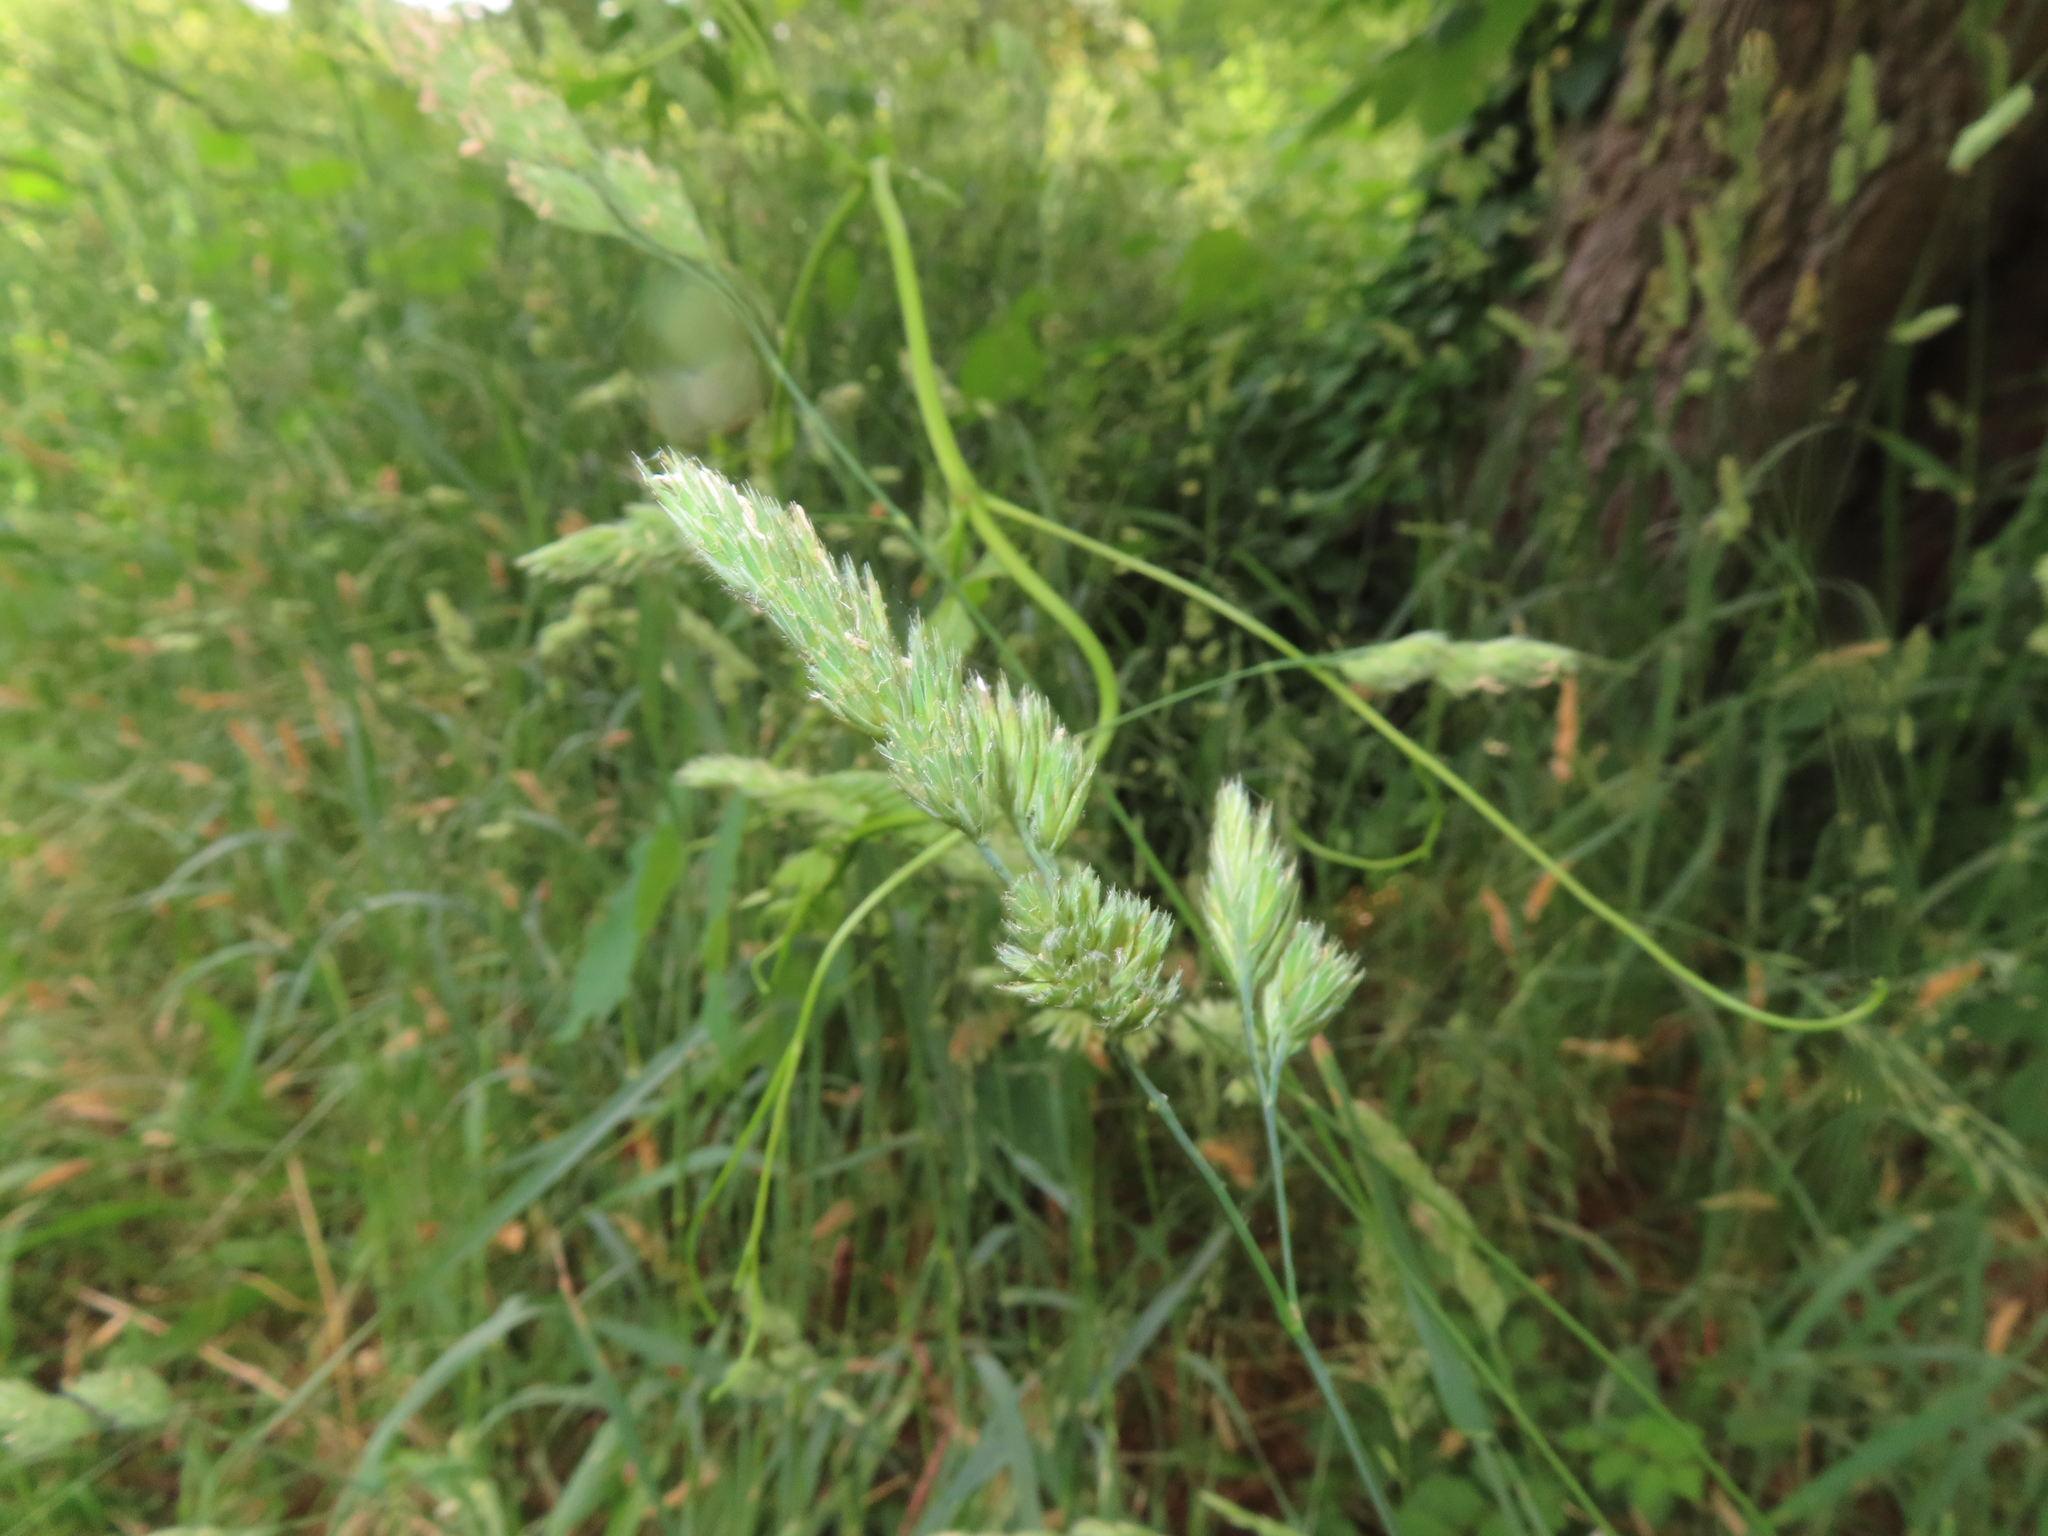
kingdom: Plantae
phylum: Tracheophyta
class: Liliopsida
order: Poales
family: Poaceae
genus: Dactylis
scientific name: Dactylis glomerata
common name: Orchardgrass
